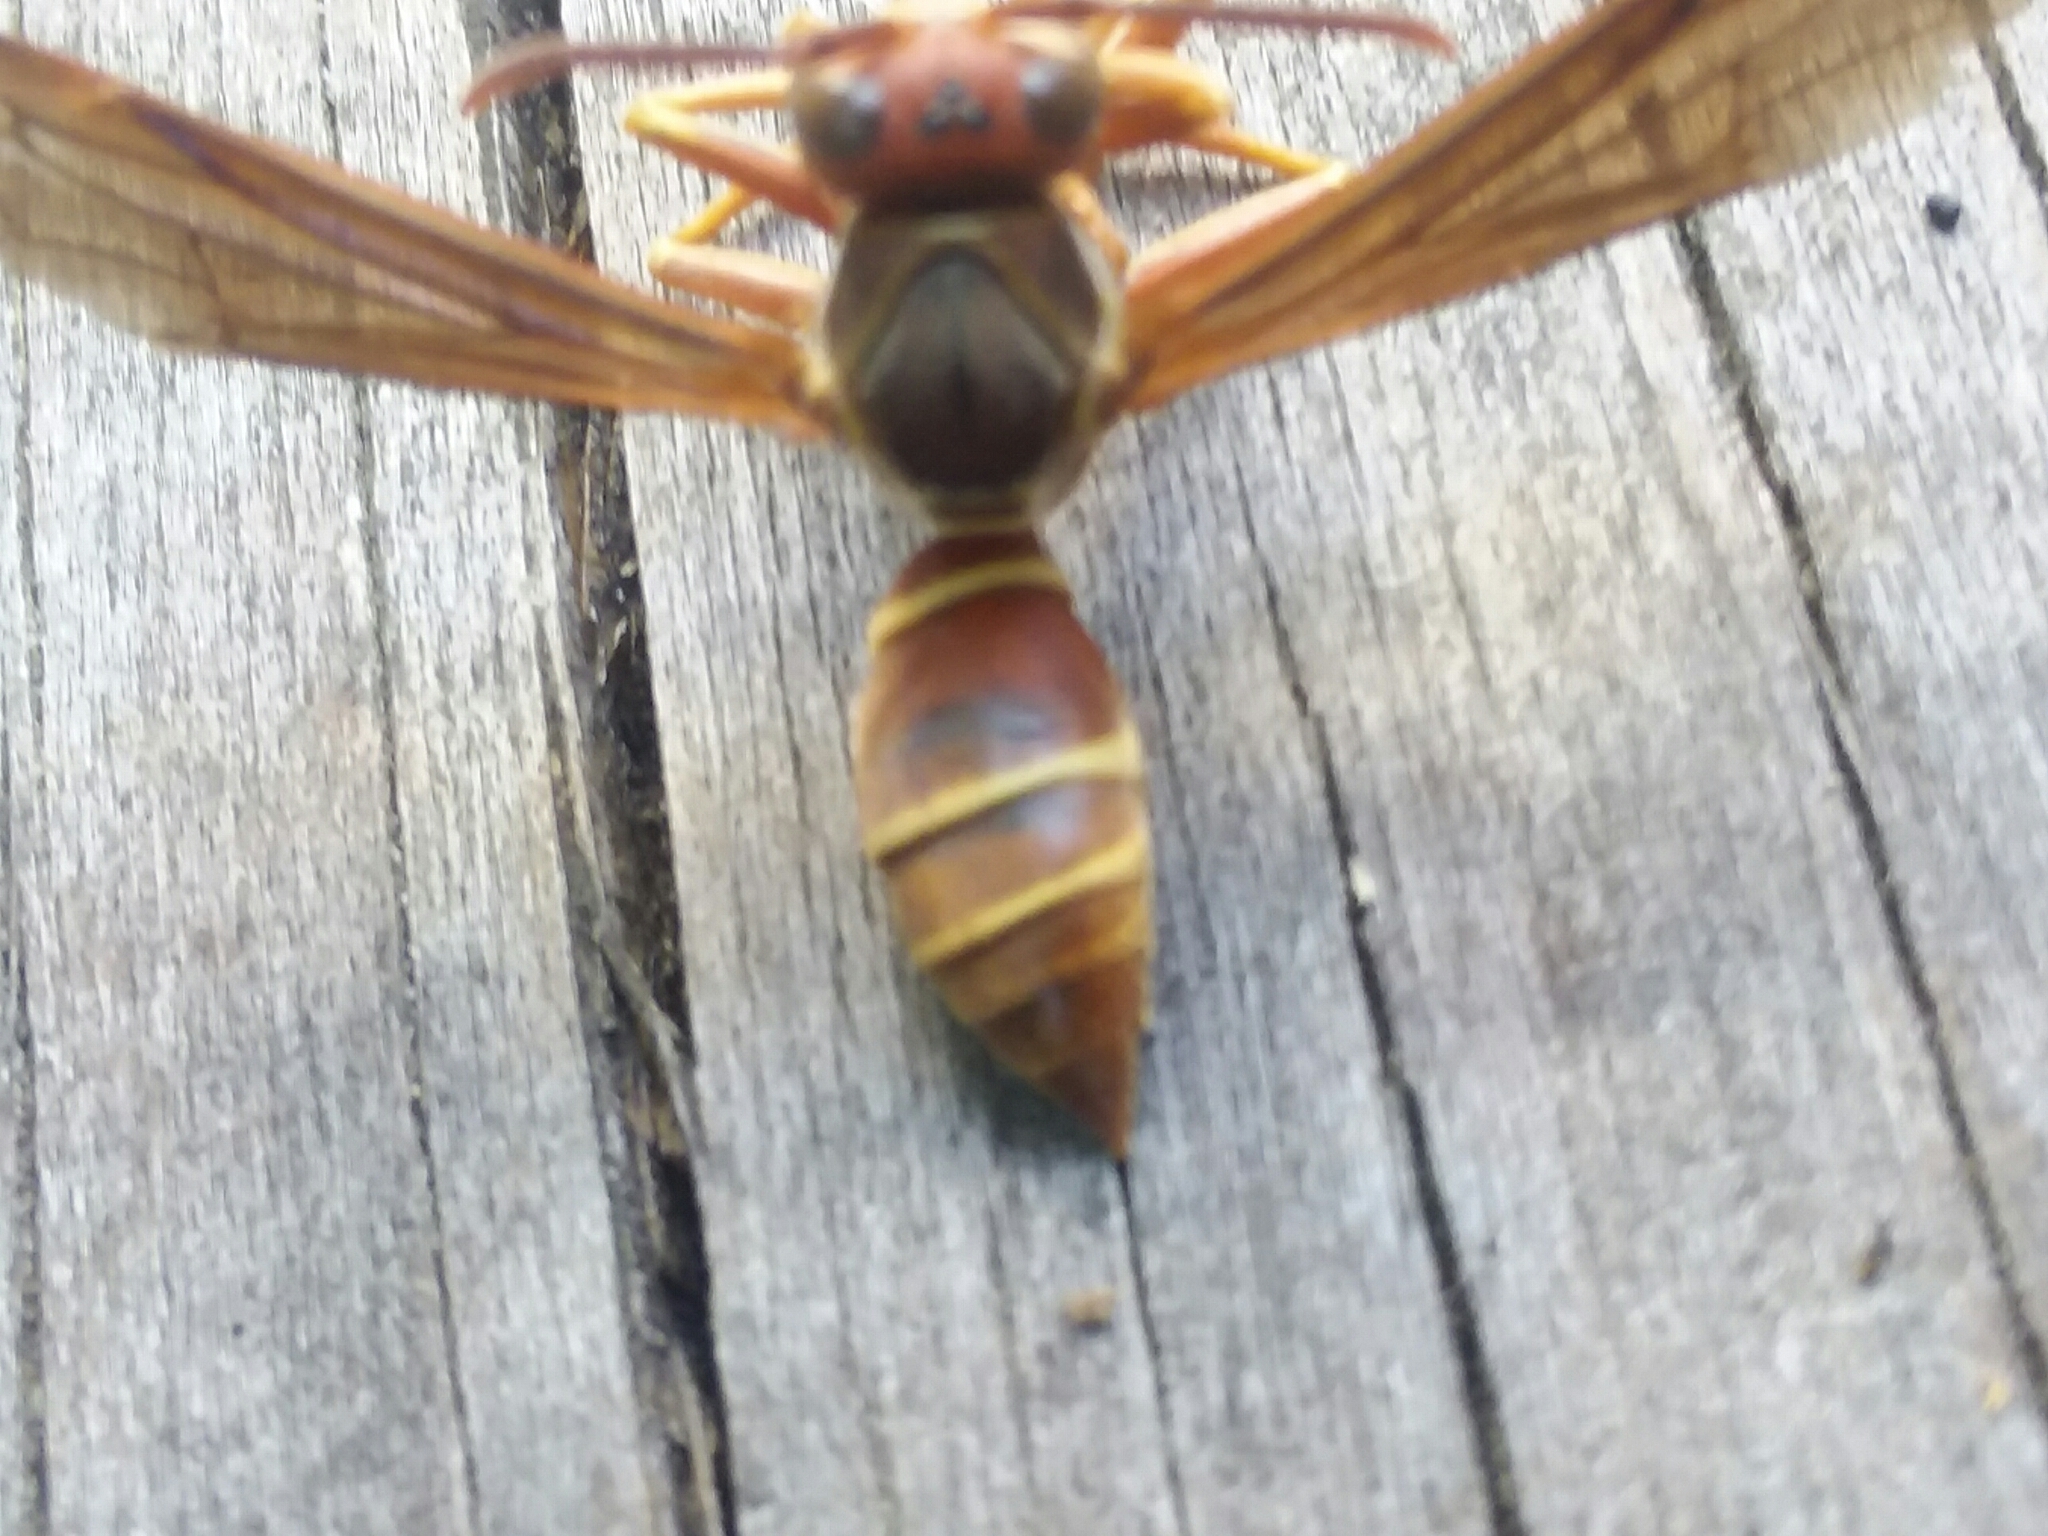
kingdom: Animalia
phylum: Arthropoda
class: Insecta
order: Hymenoptera
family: Eumenidae
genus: Polistes
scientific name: Polistes fuscatus
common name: Dark paper wasp
